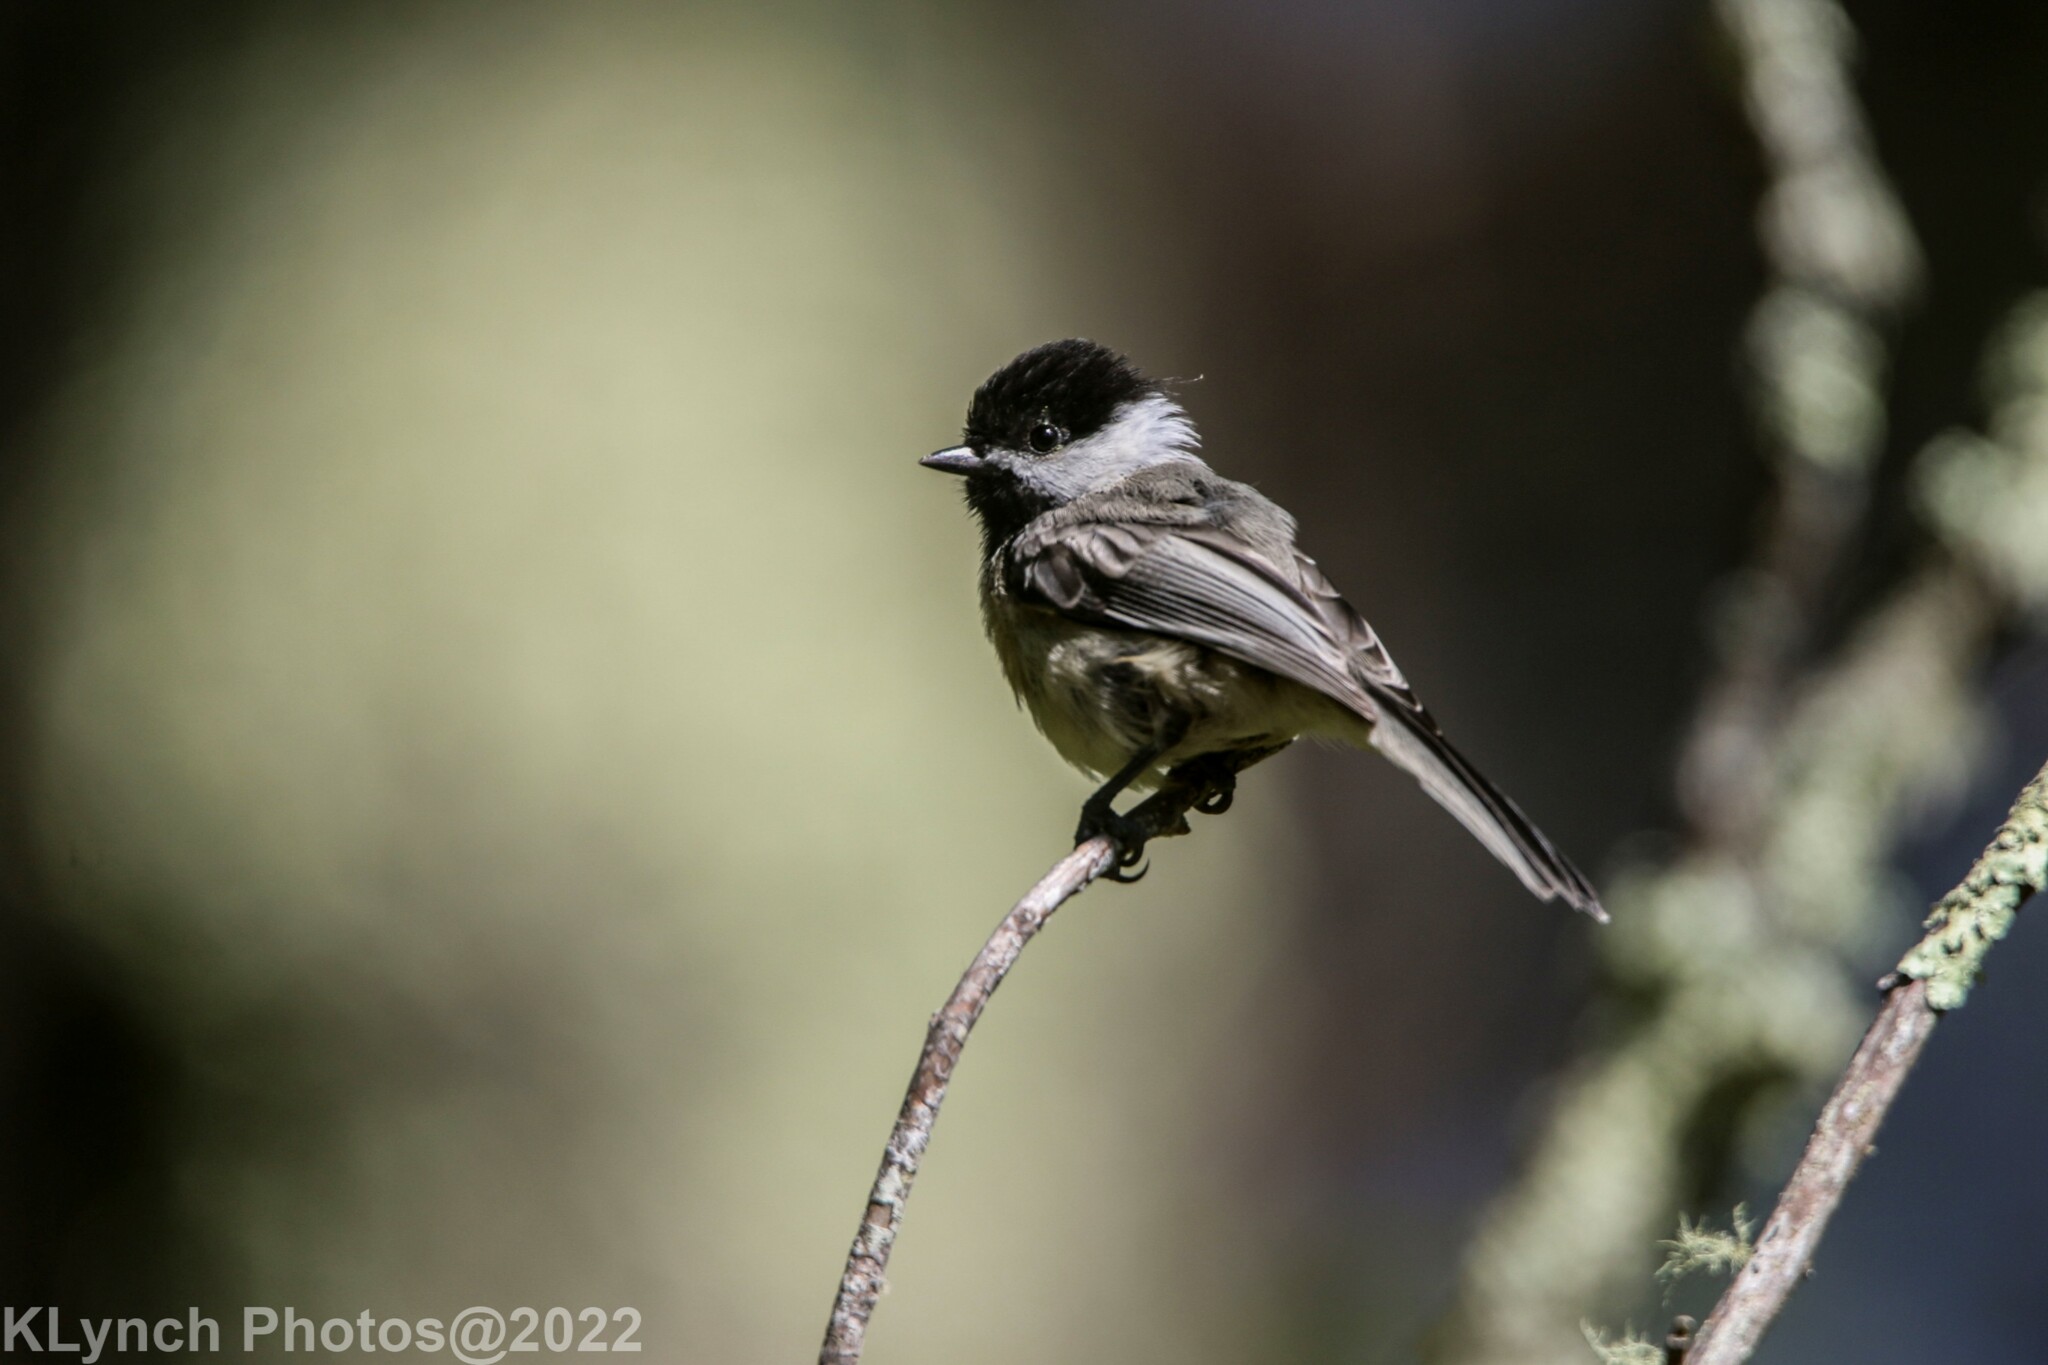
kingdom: Animalia
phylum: Chordata
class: Aves
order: Passeriformes
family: Paridae
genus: Poecile
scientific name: Poecile atricapillus
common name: Black-capped chickadee
